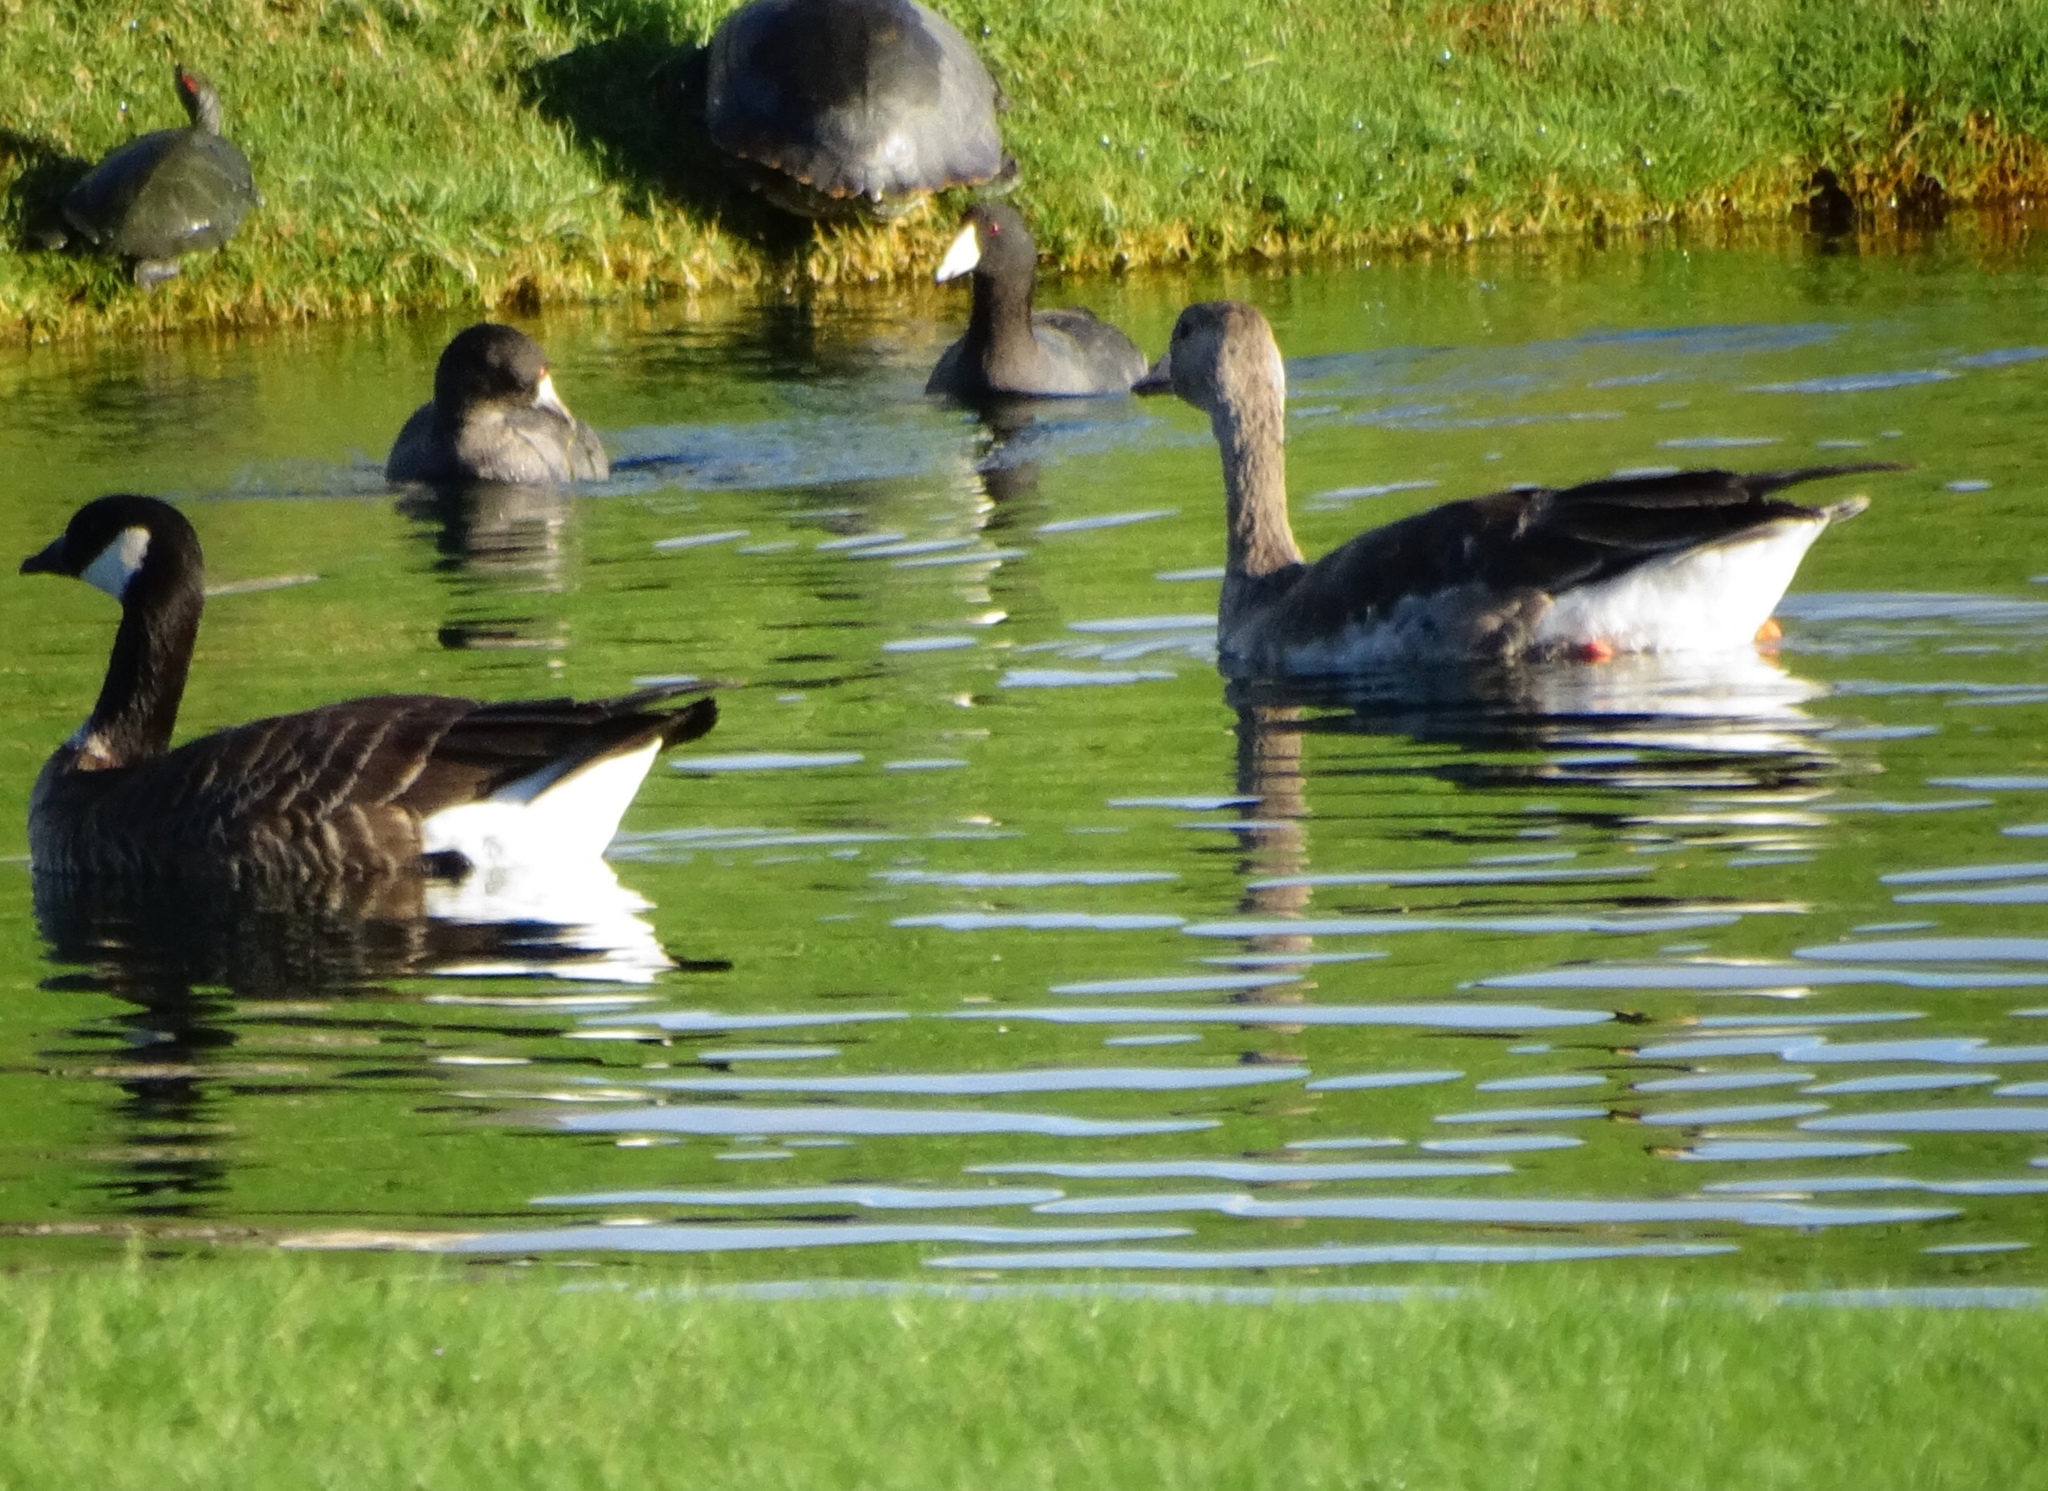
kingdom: Animalia
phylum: Chordata
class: Aves
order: Anseriformes
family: Anatidae
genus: Branta
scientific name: Branta hutchinsii
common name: Cackling goose
